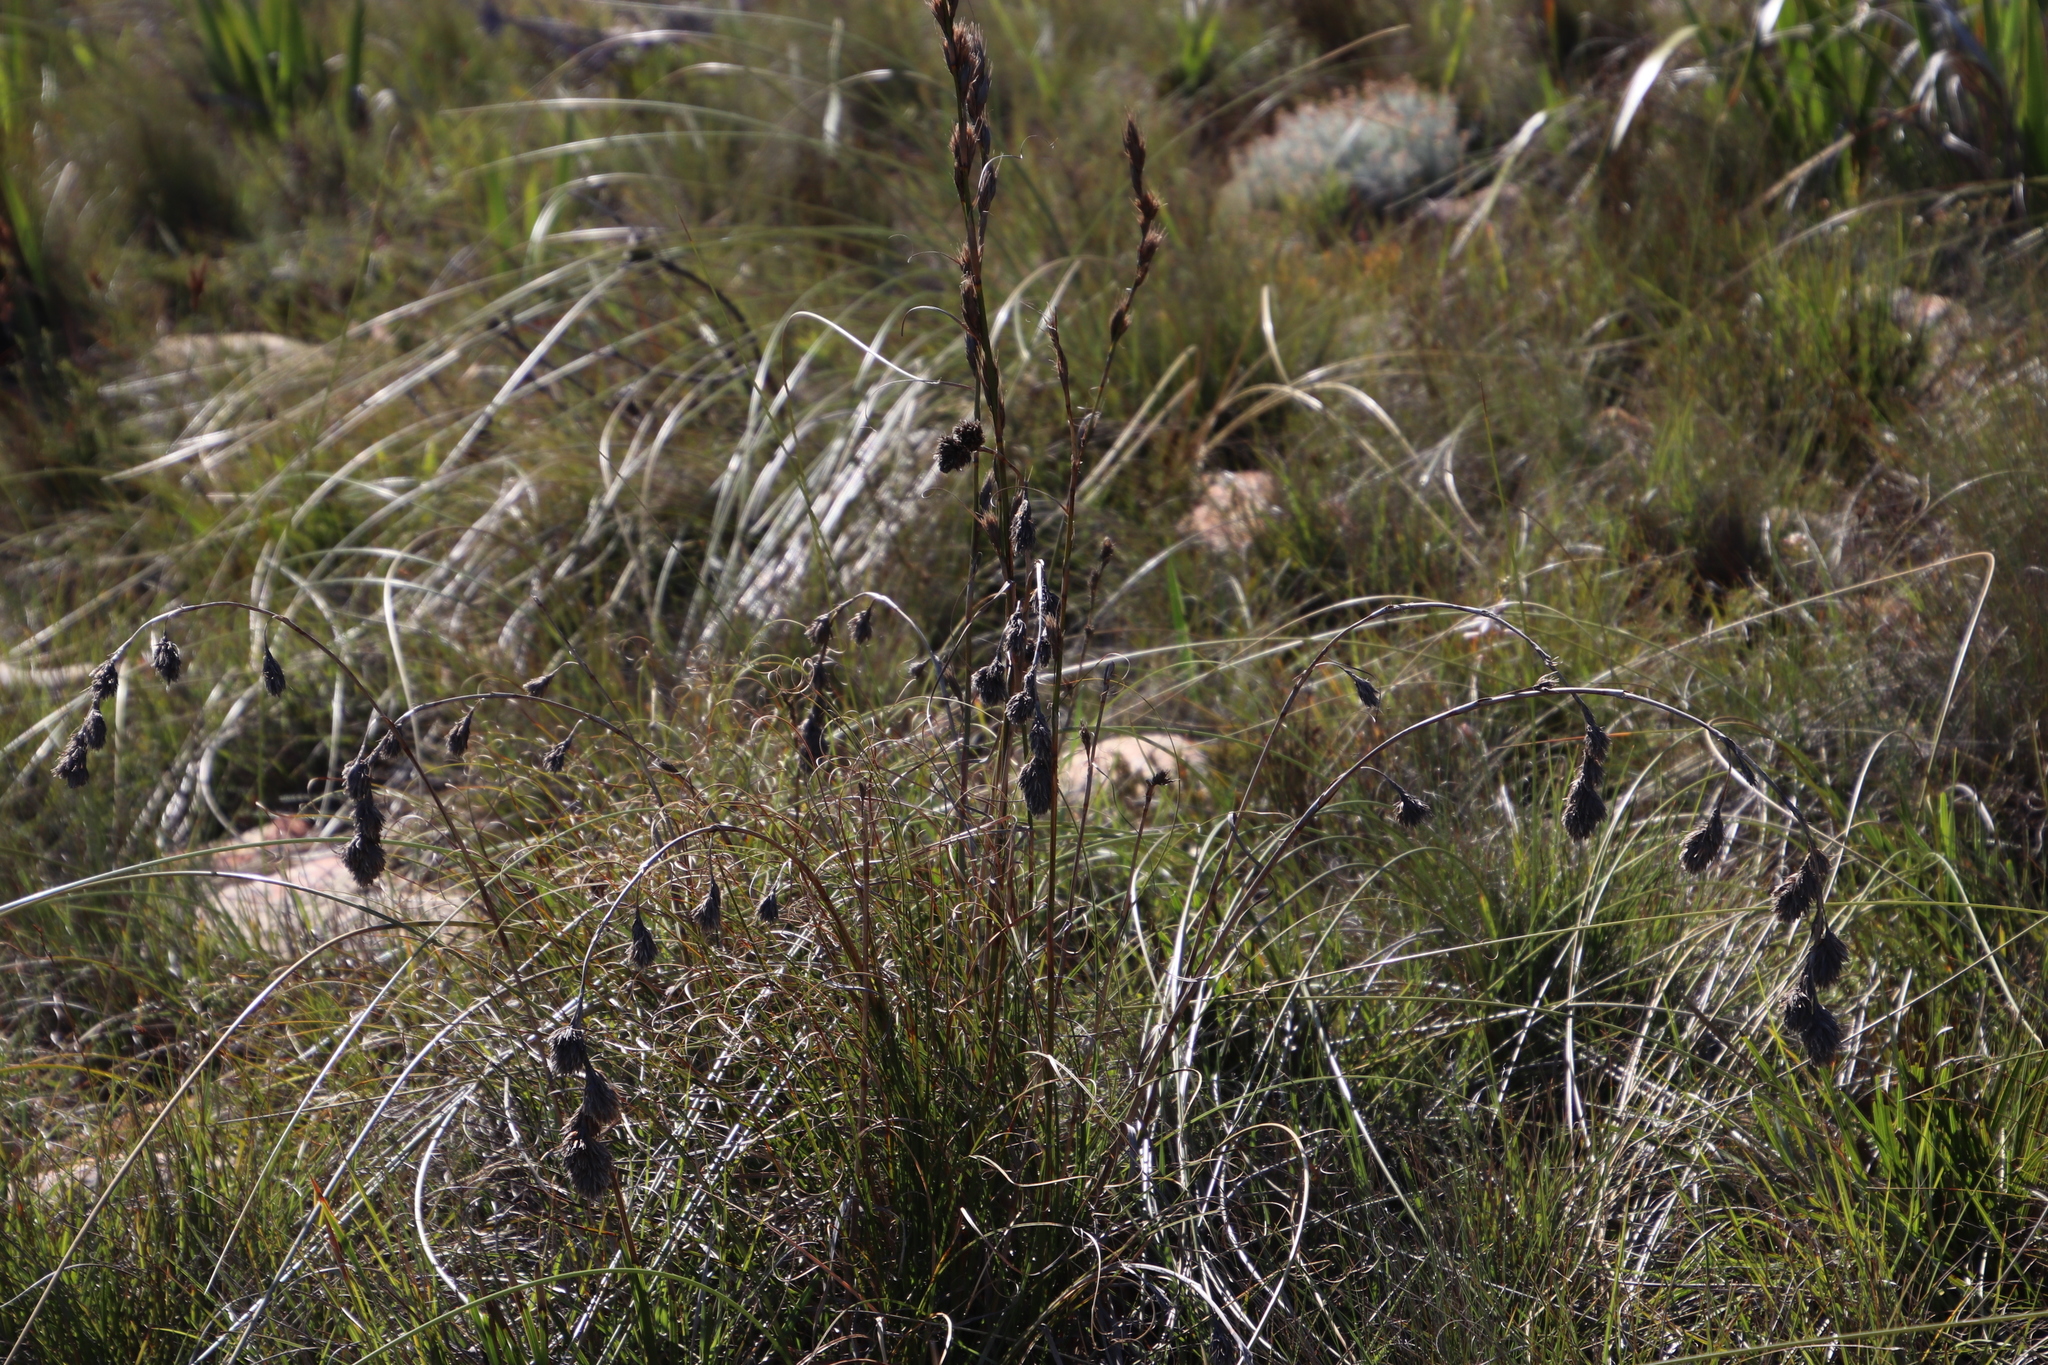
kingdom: Plantae
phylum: Tracheophyta
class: Liliopsida
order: Poales
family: Cyperaceae
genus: Tetraria
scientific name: Tetraria bromoides
